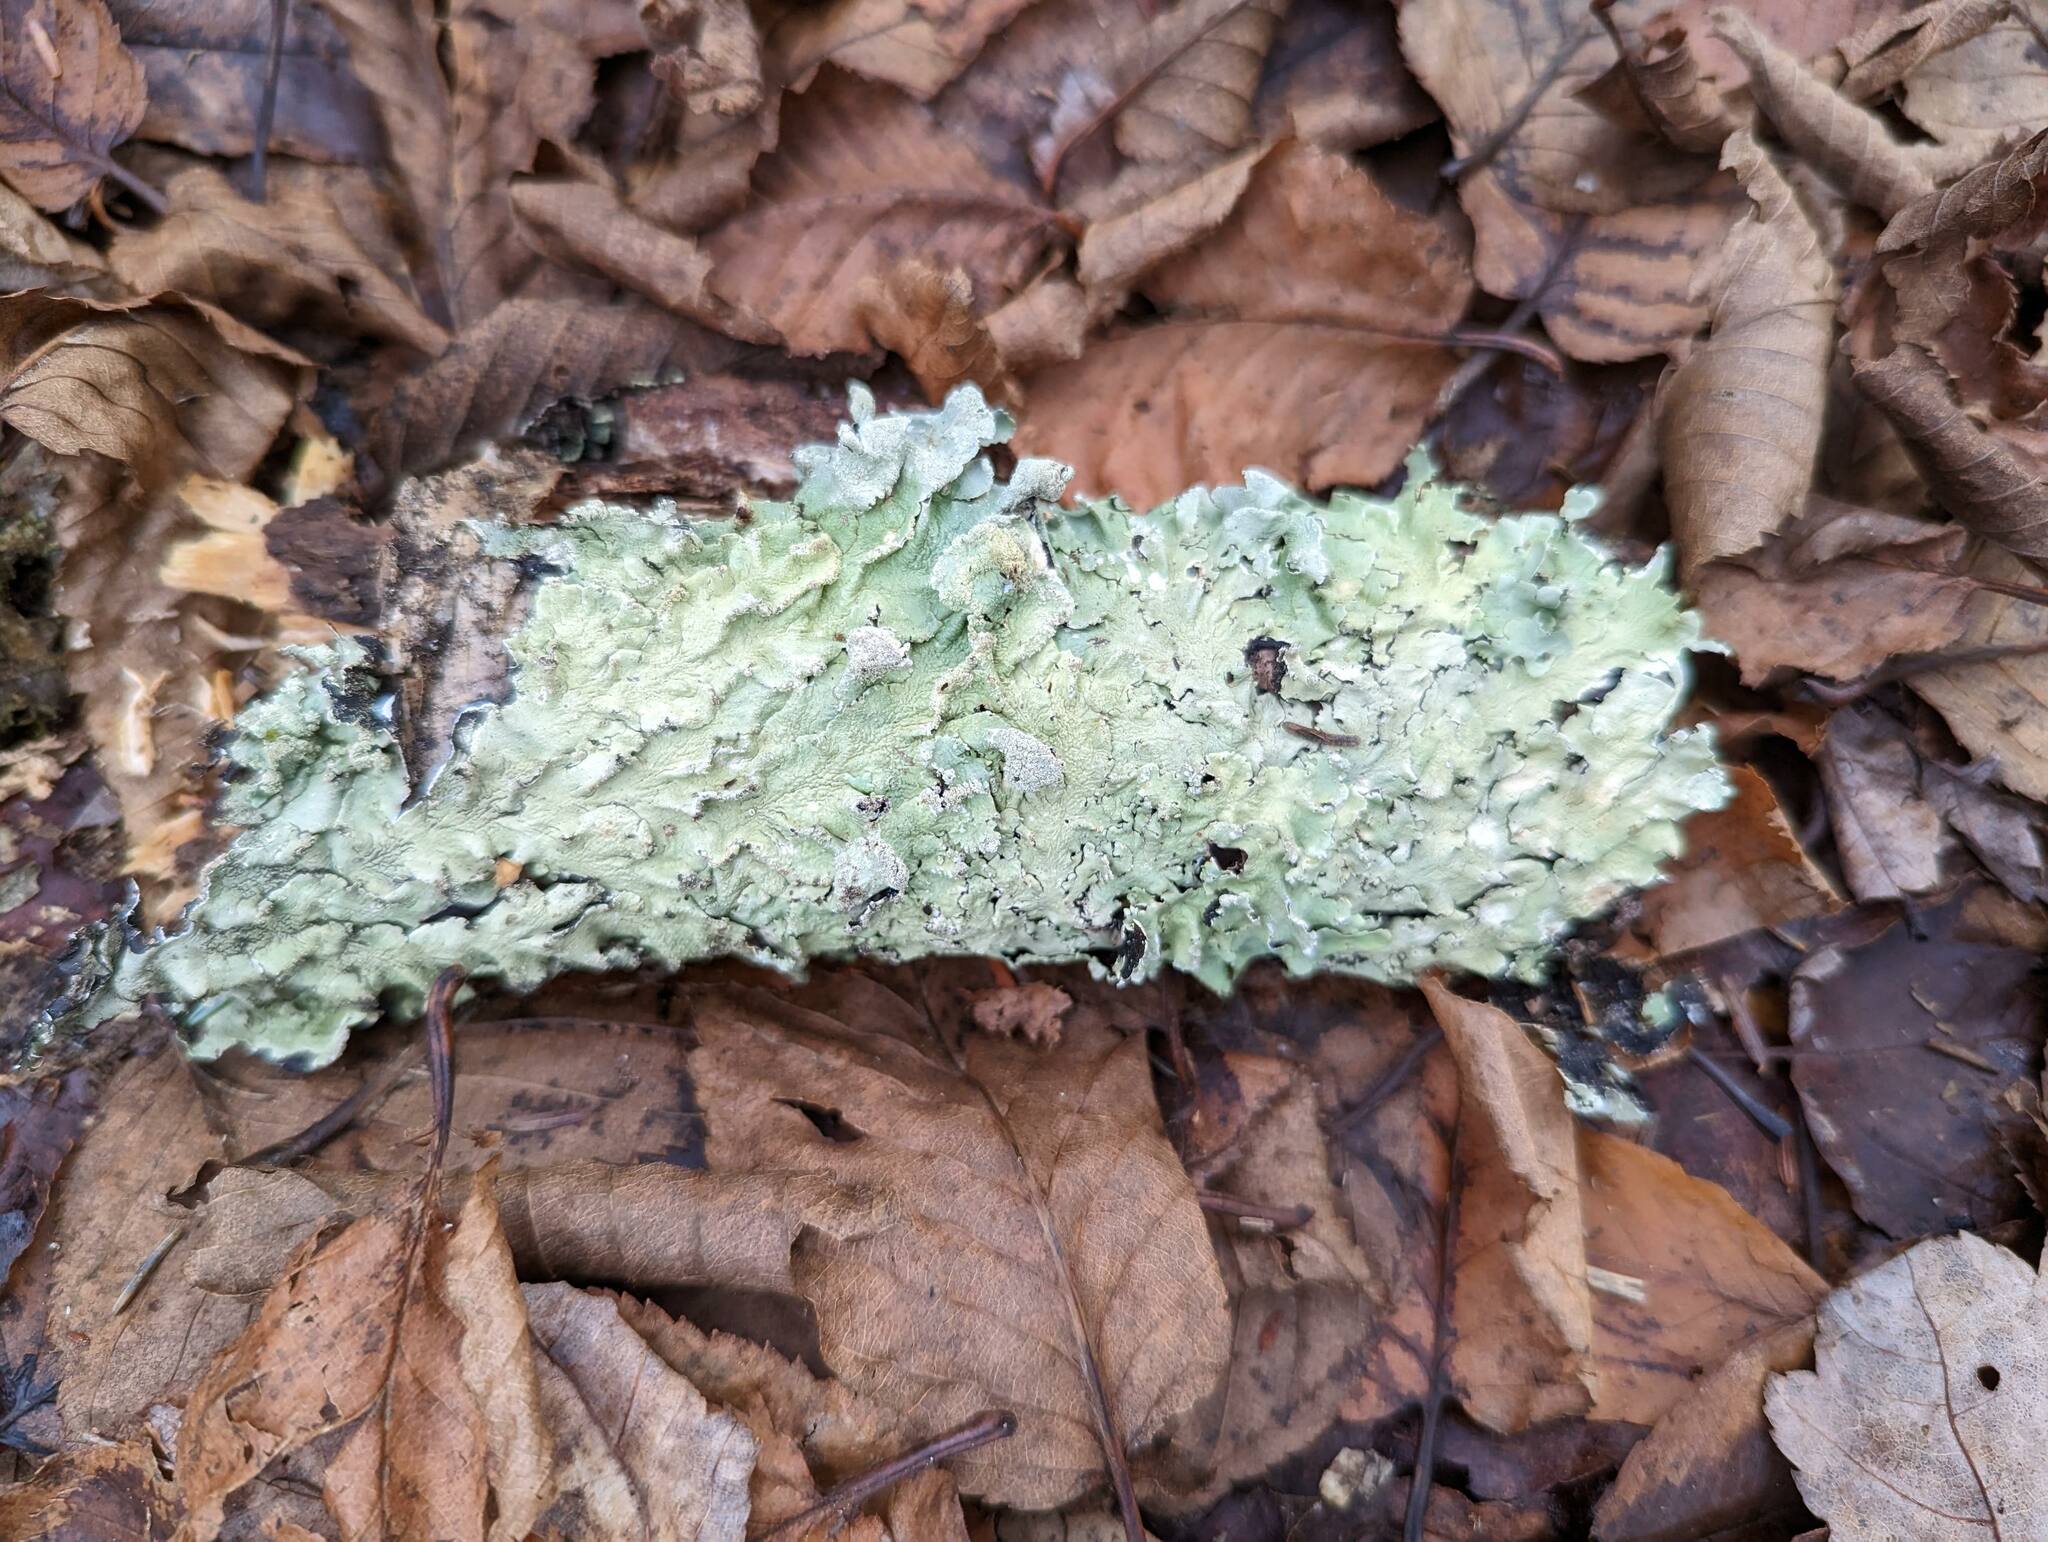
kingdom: Fungi
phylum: Ascomycota
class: Lecanoromycetes
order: Lecanorales
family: Parmeliaceae
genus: Flavoparmelia
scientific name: Flavoparmelia caperata
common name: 40-mile per hour lichen
